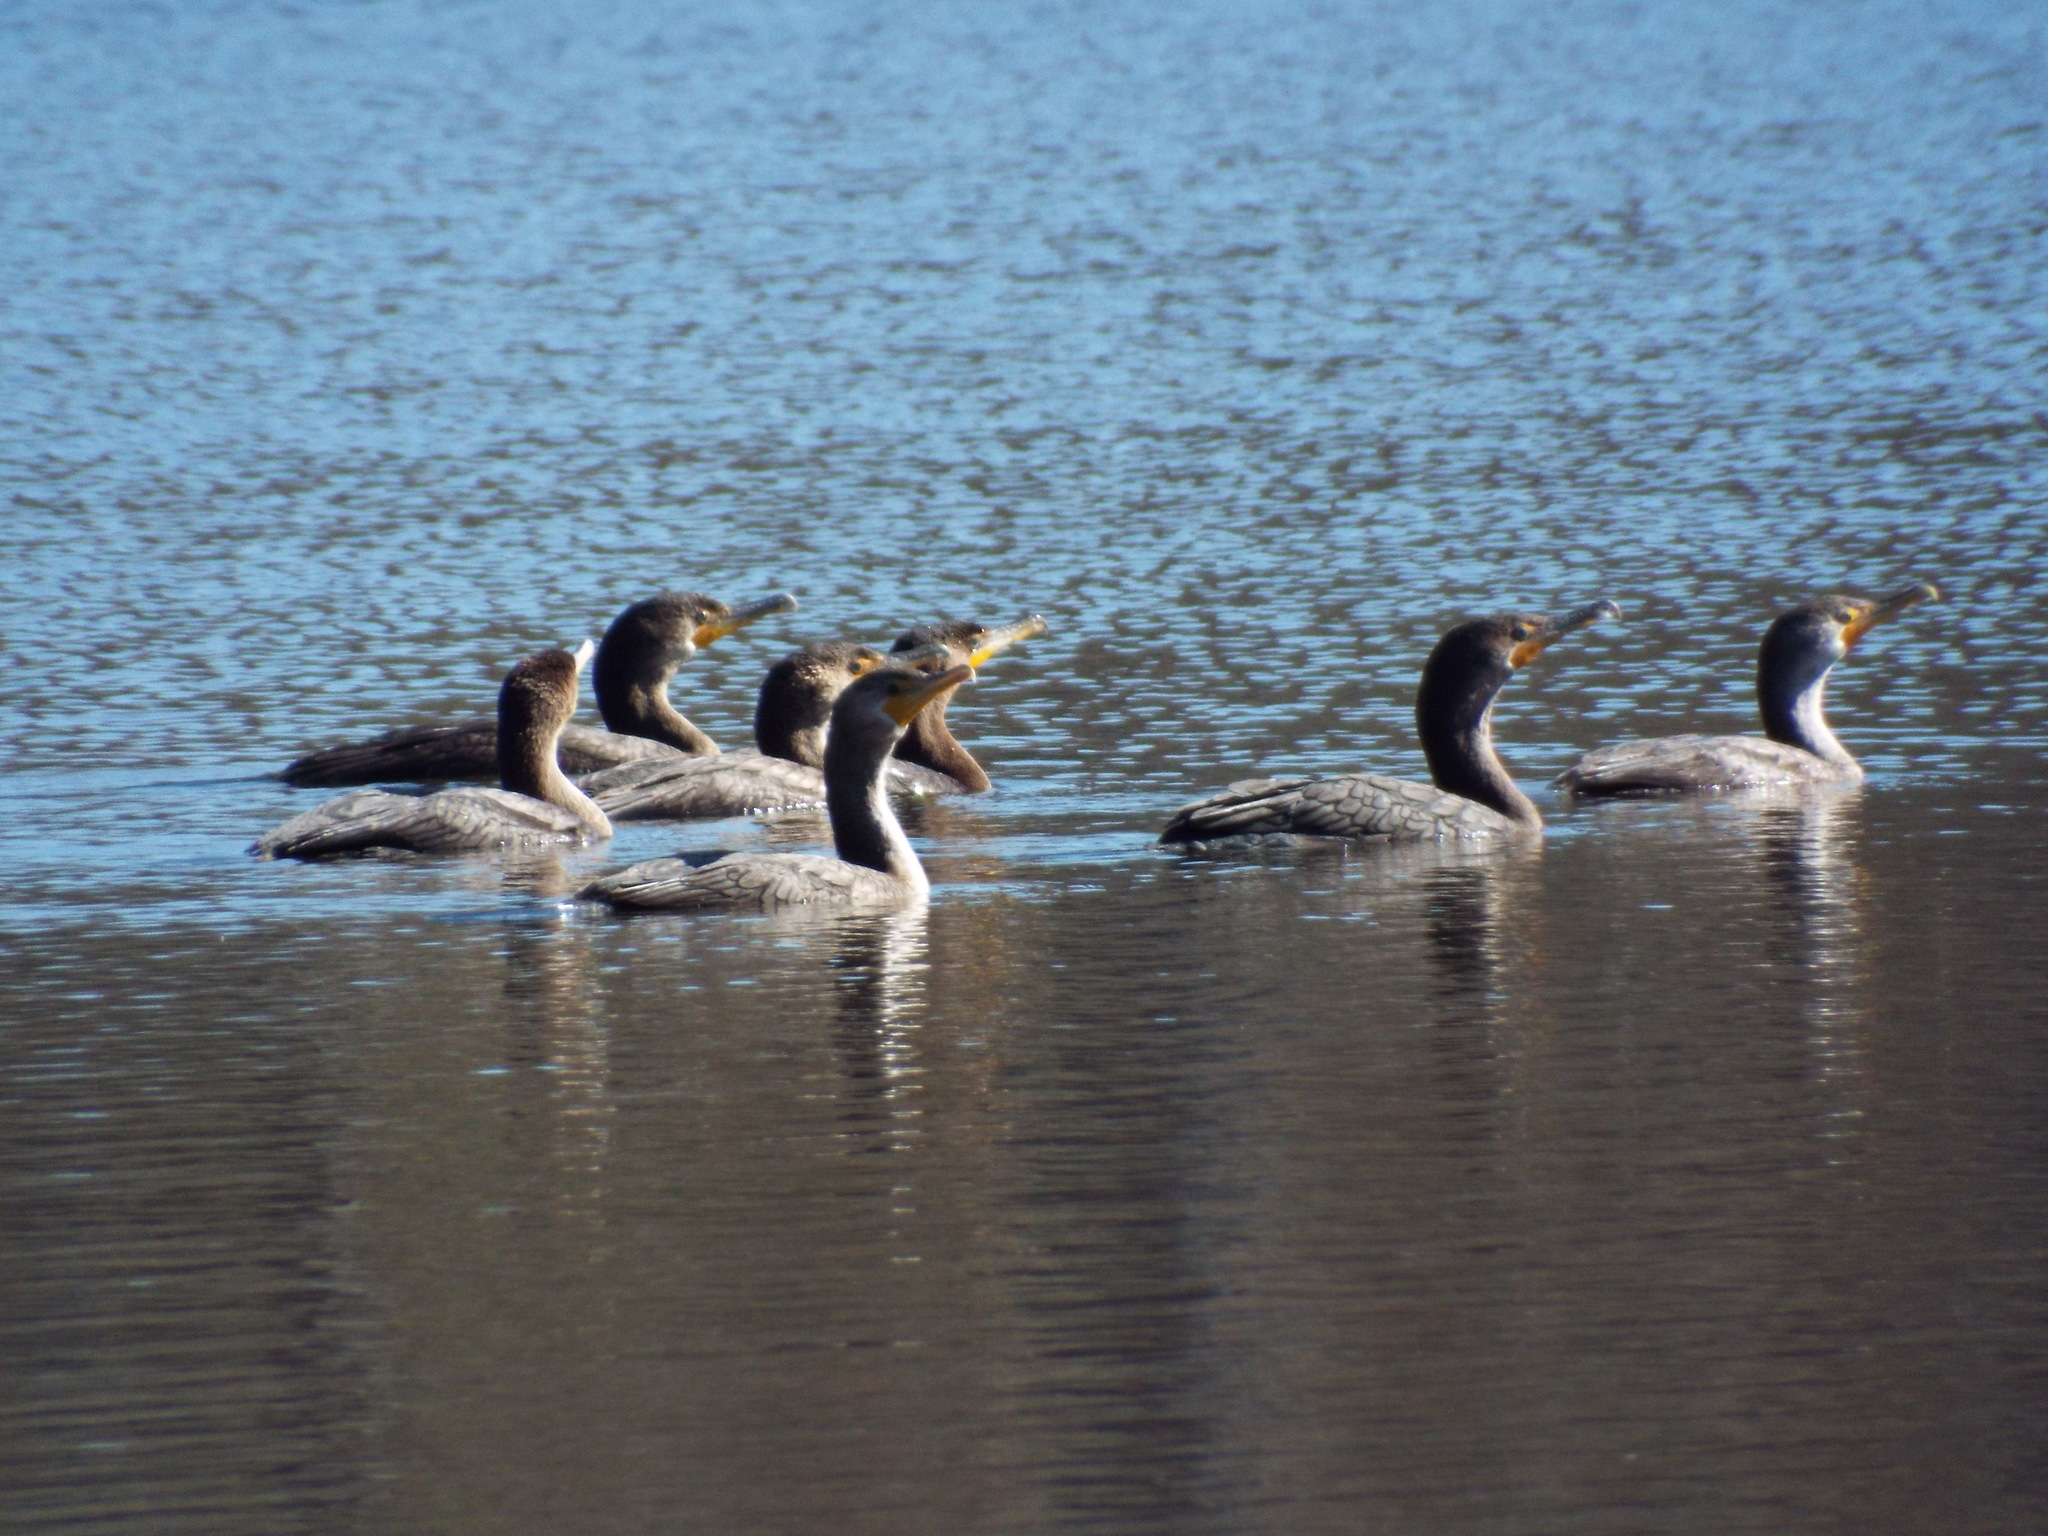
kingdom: Animalia
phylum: Chordata
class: Aves
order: Suliformes
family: Phalacrocoracidae
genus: Phalacrocorax
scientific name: Phalacrocorax auritus
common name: Double-crested cormorant
